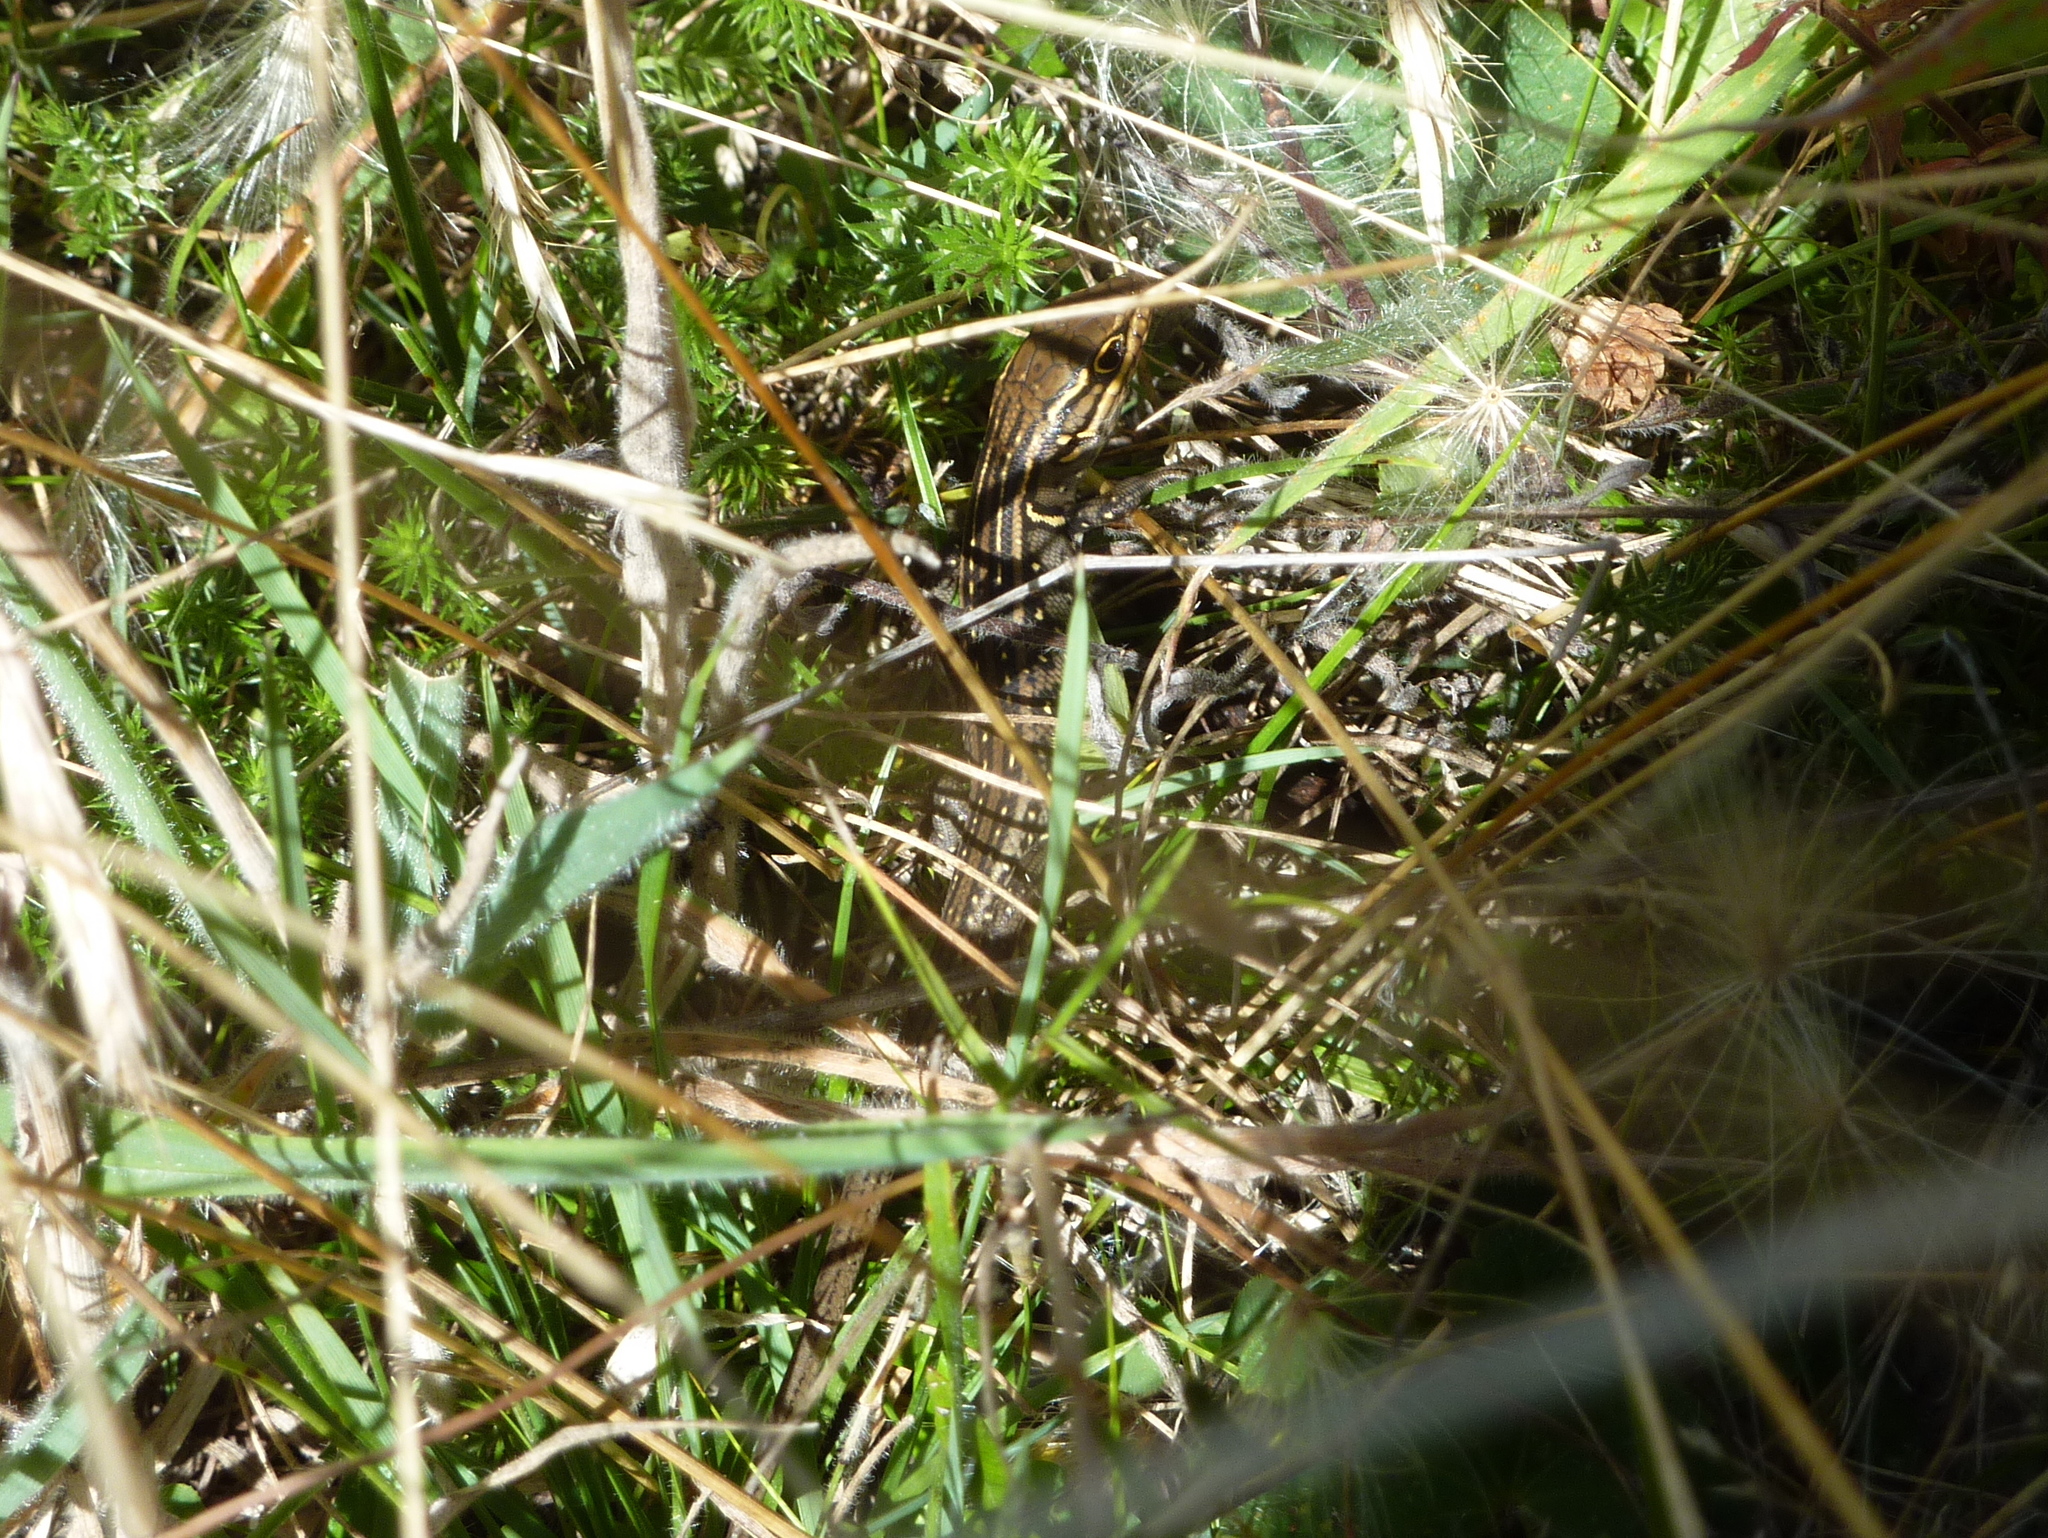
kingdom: Animalia
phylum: Chordata
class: Squamata
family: Scincidae
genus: Liopholis
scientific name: Liopholis whitii
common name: White's rock-skink
